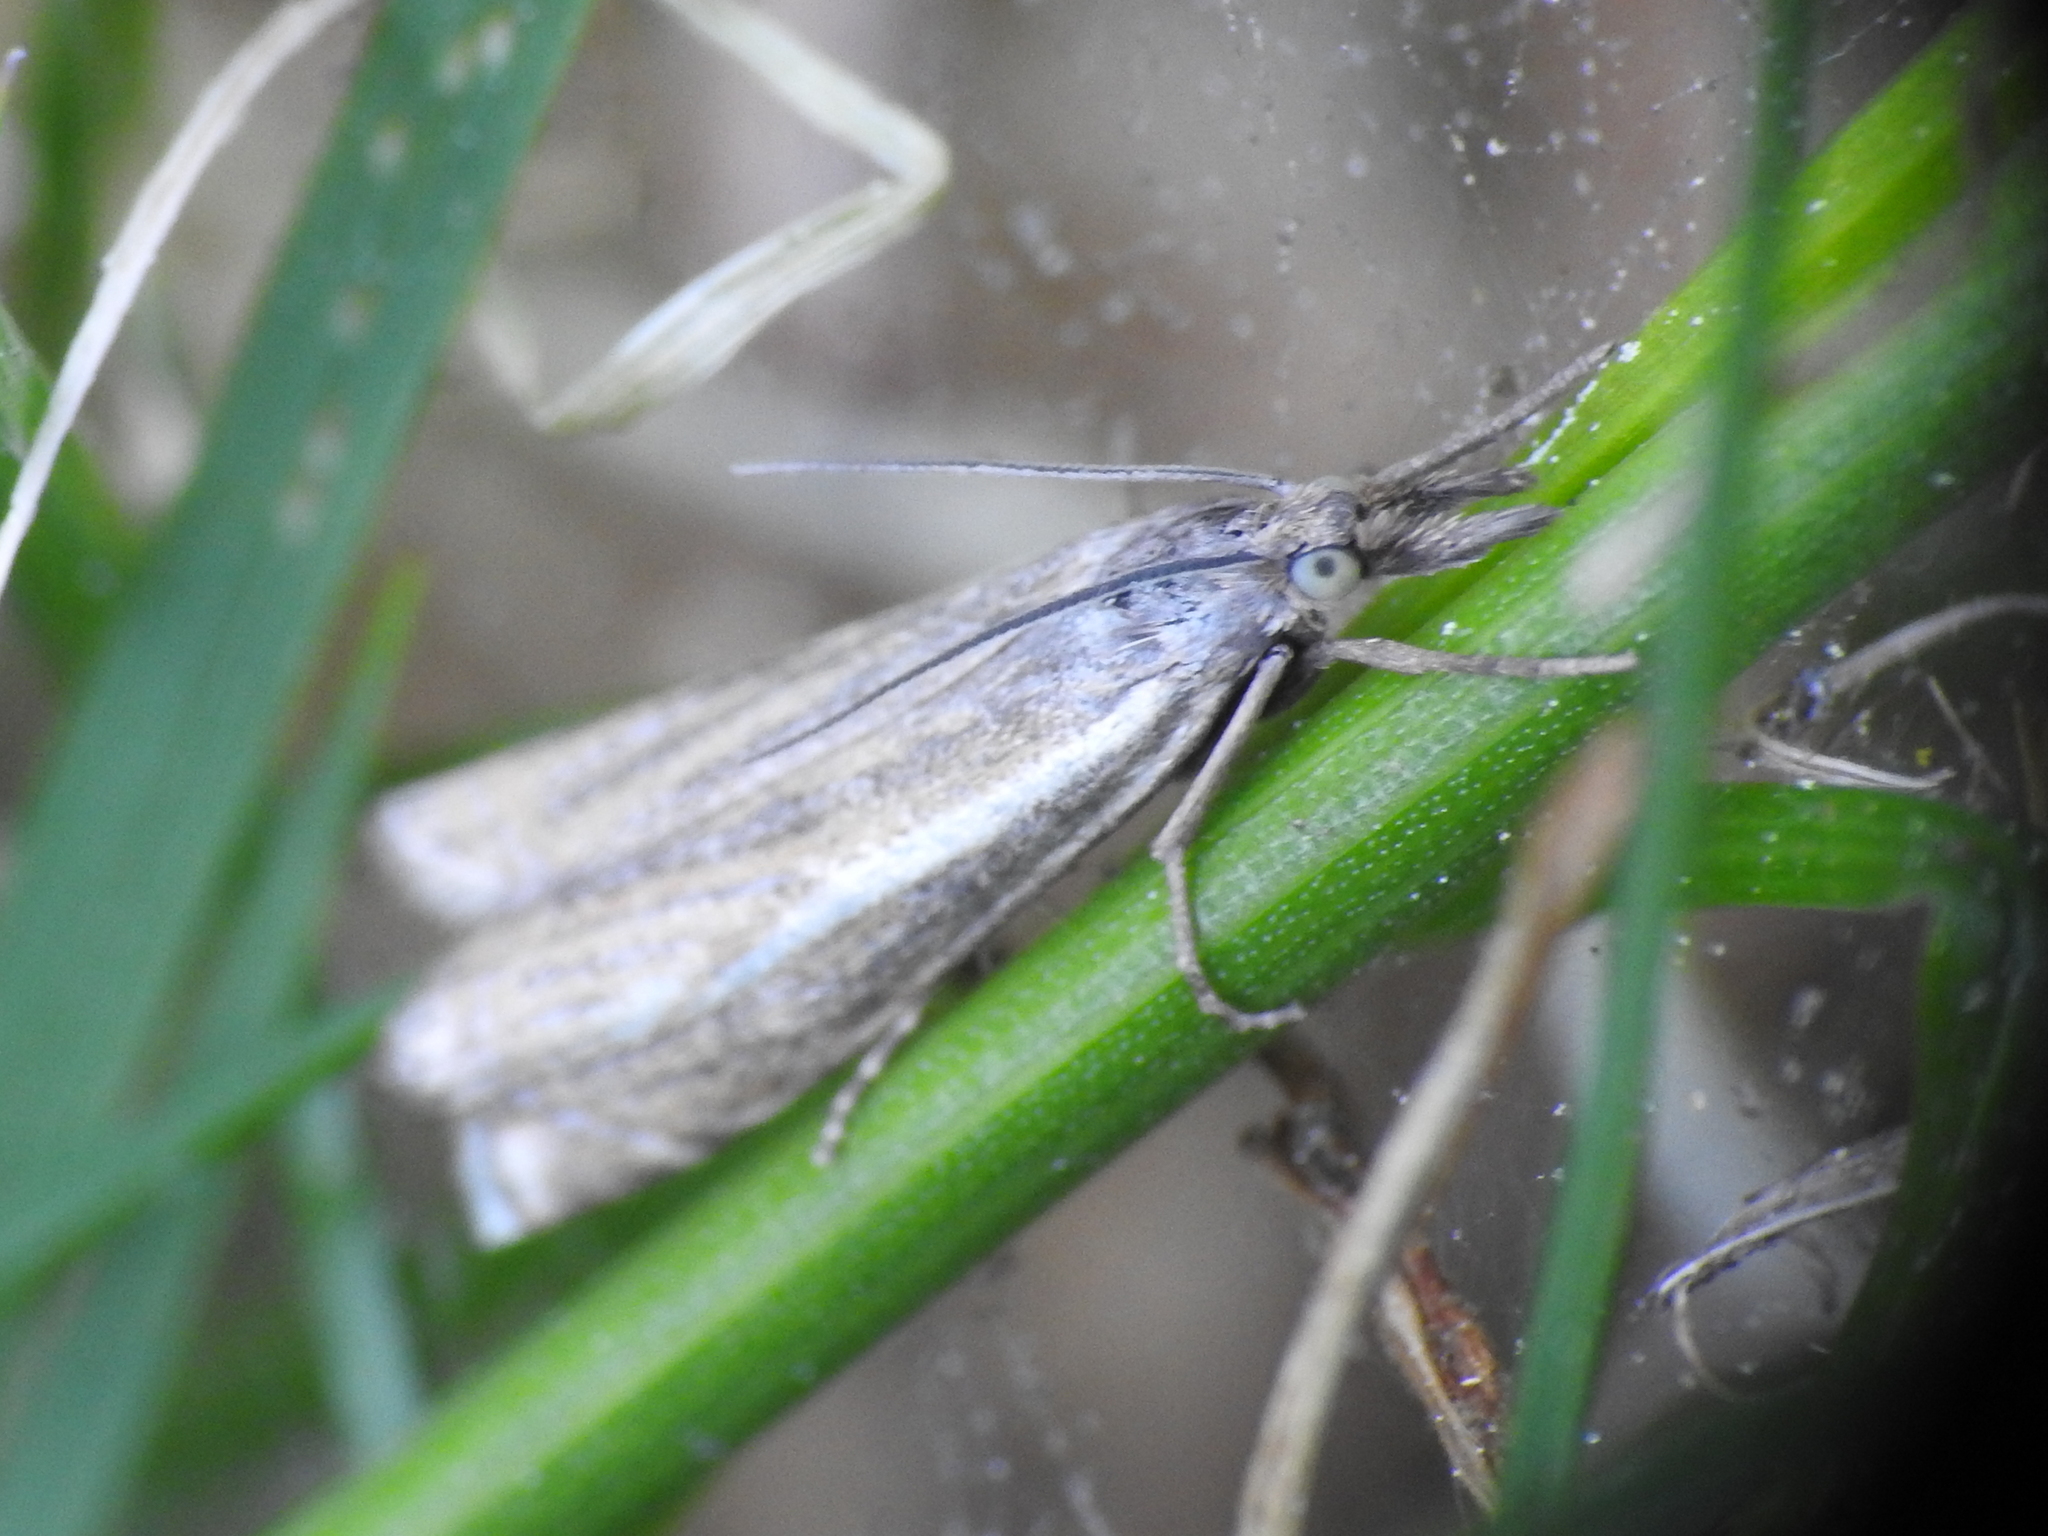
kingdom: Animalia
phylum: Arthropoda
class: Insecta
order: Lepidoptera
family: Crambidae
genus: Crambus
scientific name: Crambus nemorella
